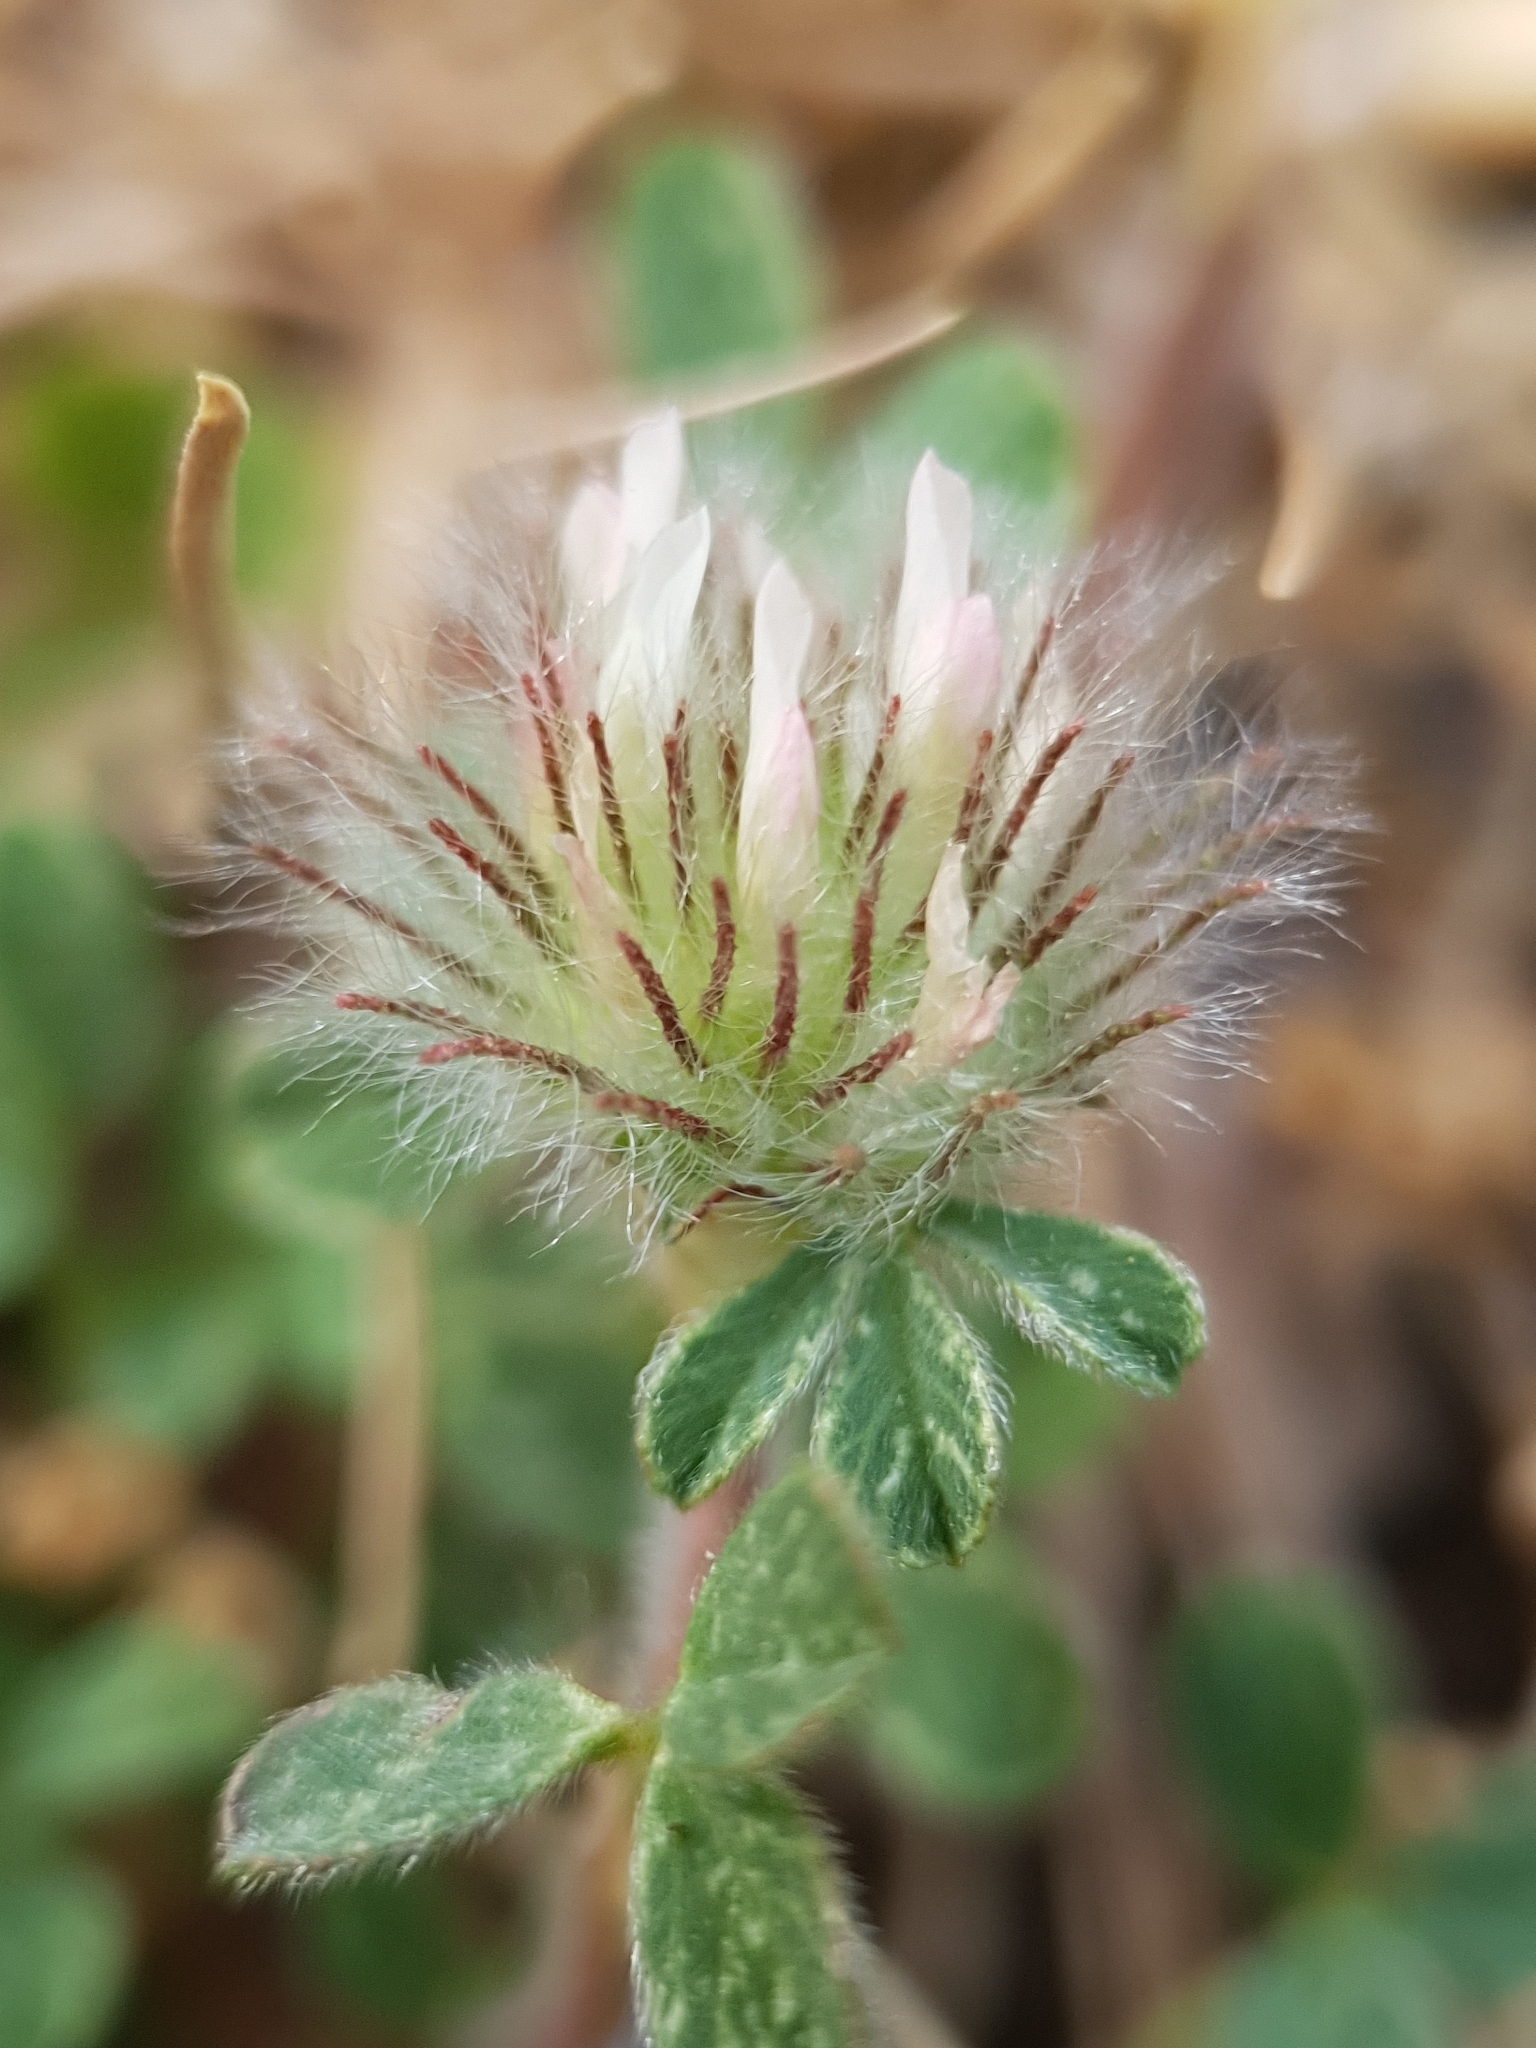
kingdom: Plantae
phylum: Tracheophyta
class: Magnoliopsida
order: Fabales
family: Fabaceae
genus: Trifolium
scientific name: Trifolium cherleri
